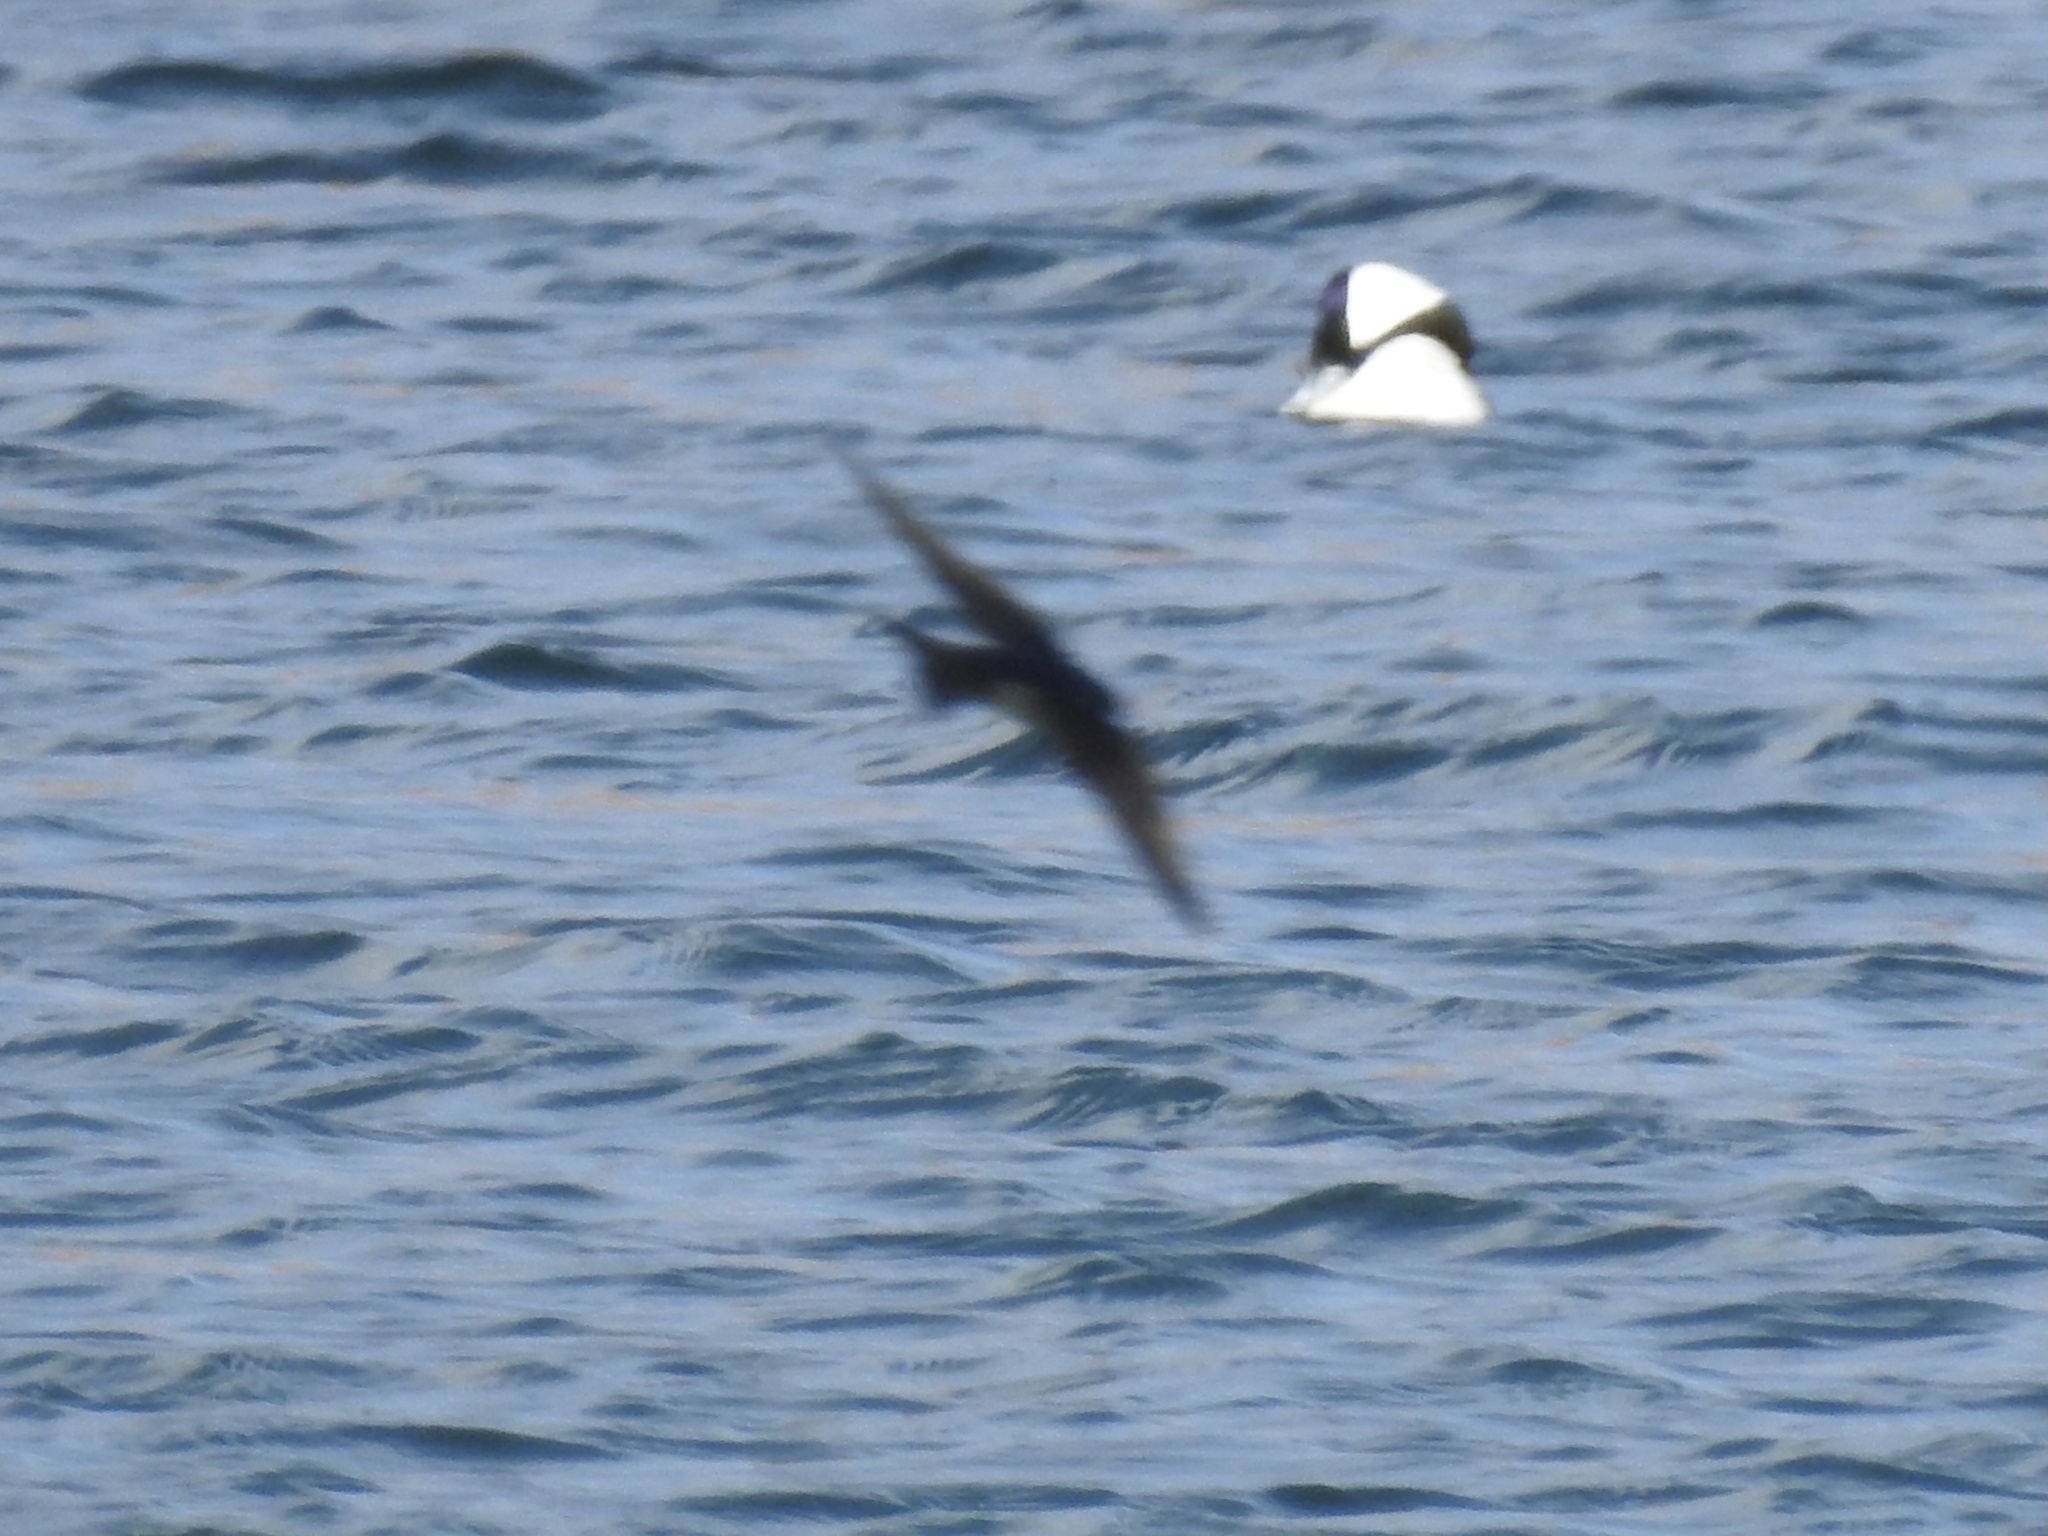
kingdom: Animalia
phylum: Chordata
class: Aves
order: Passeriformes
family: Hirundinidae
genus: Tachycineta
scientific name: Tachycineta bicolor
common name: Tree swallow
